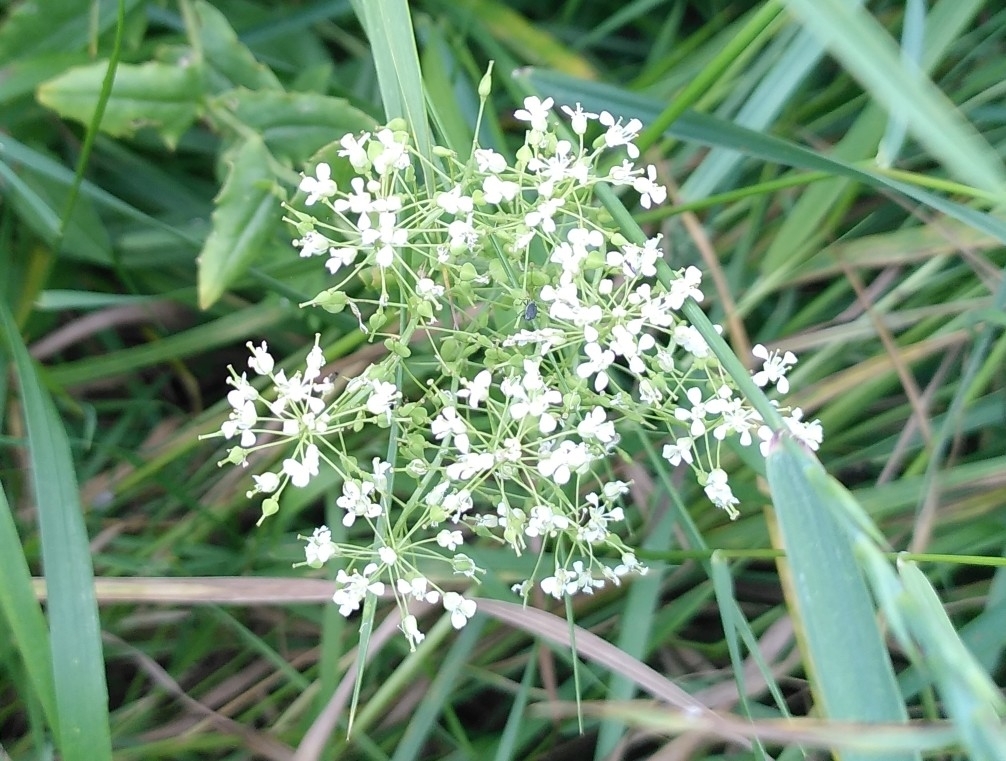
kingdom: Plantae
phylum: Tracheophyta
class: Magnoliopsida
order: Brassicales
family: Brassicaceae
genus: Lepidium
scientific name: Lepidium draba
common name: Hoary cress
